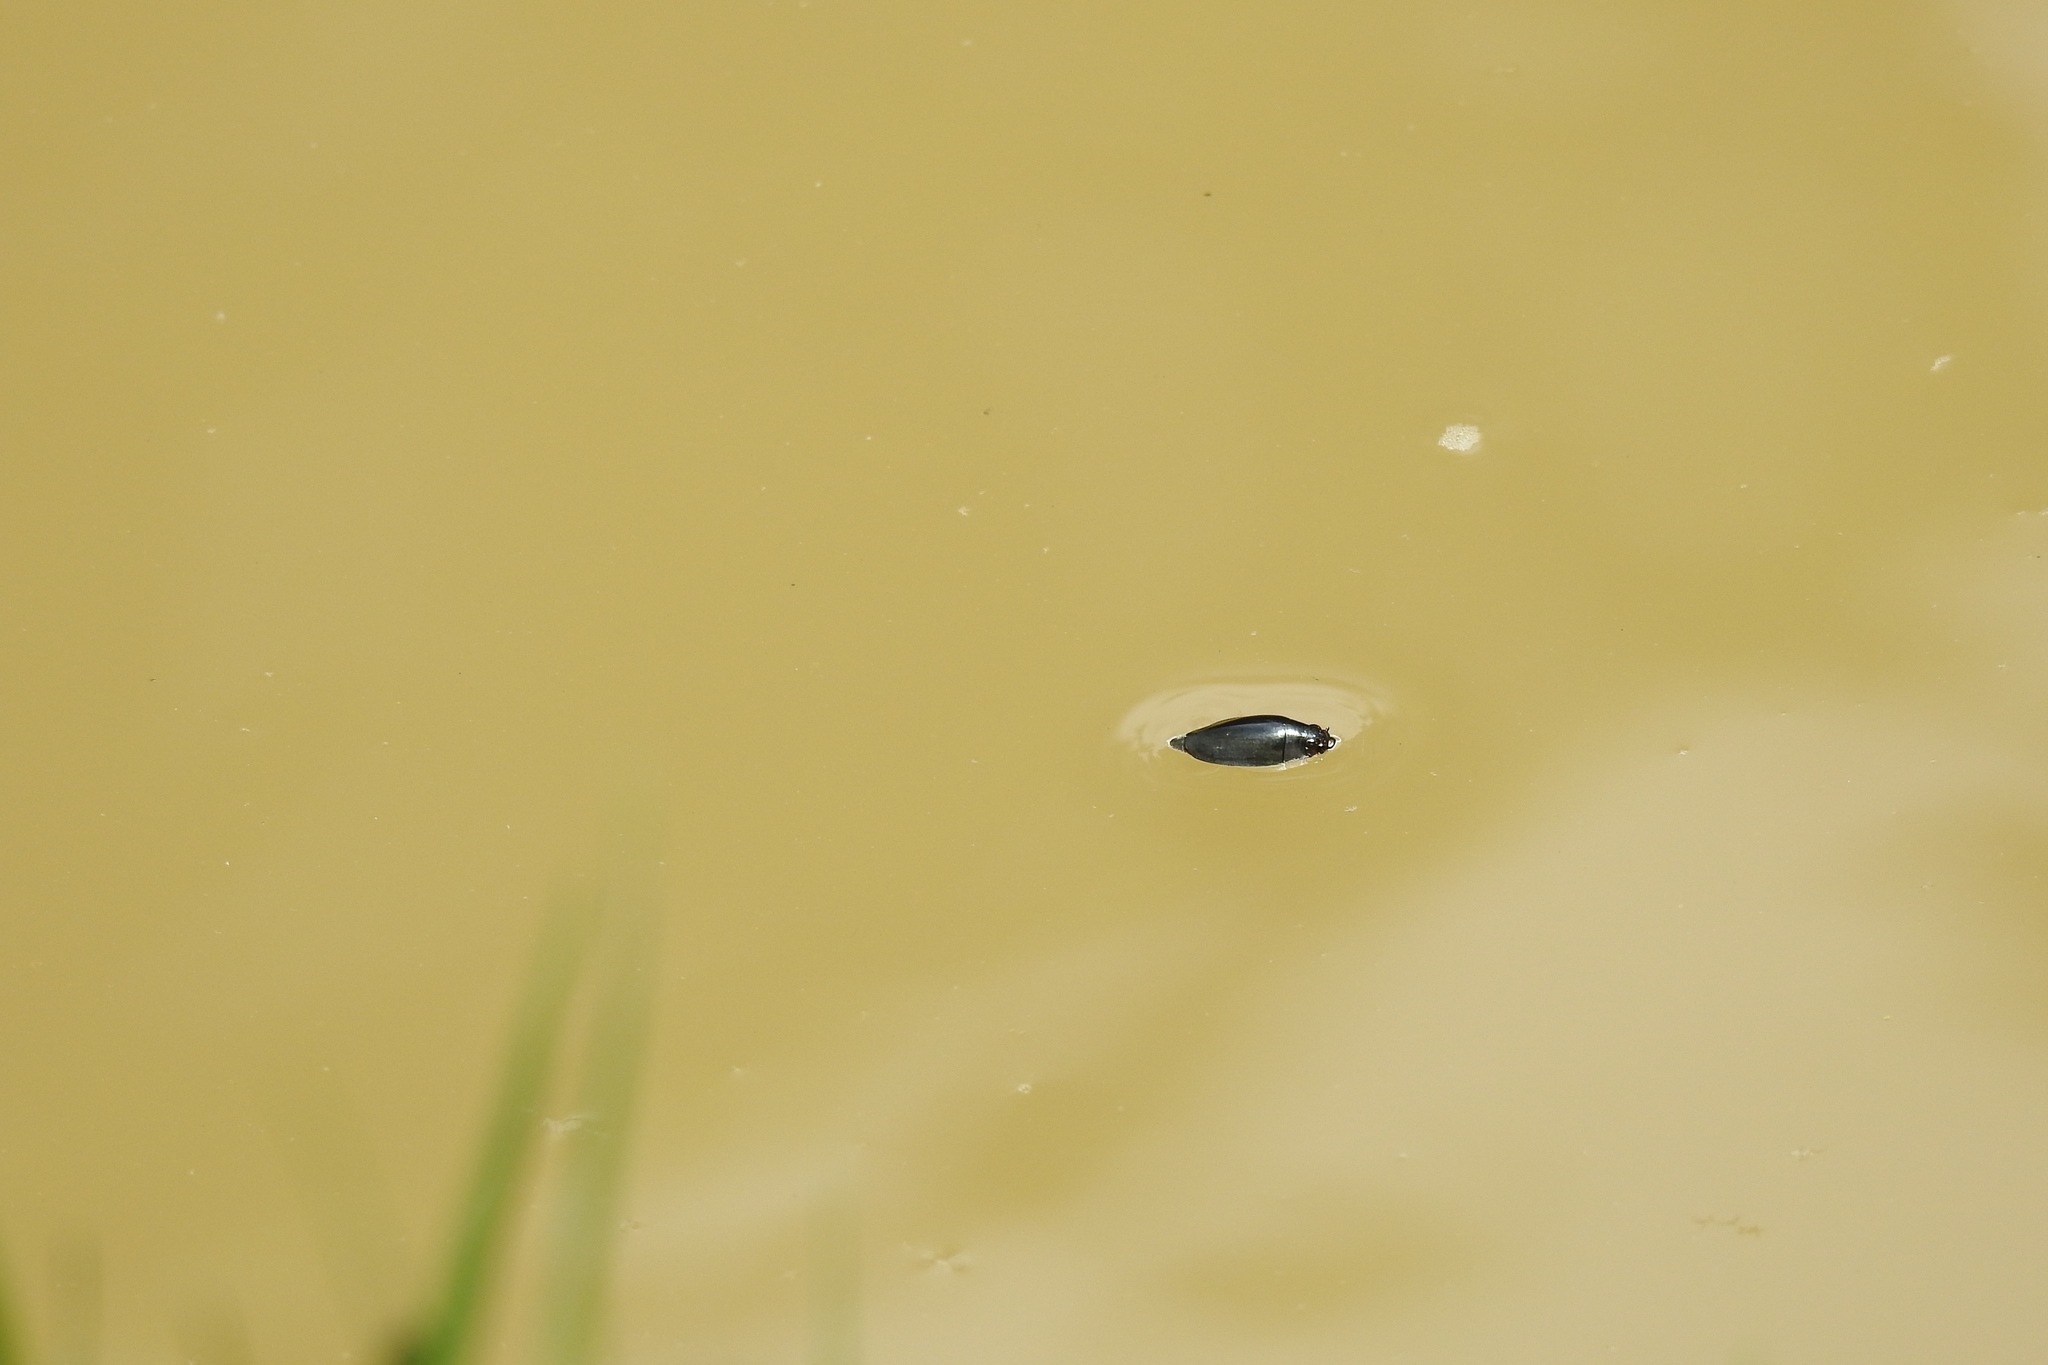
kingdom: Animalia
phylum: Arthropoda
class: Insecta
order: Coleoptera
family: Gyrinidae
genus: Dineutus
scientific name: Dineutus
